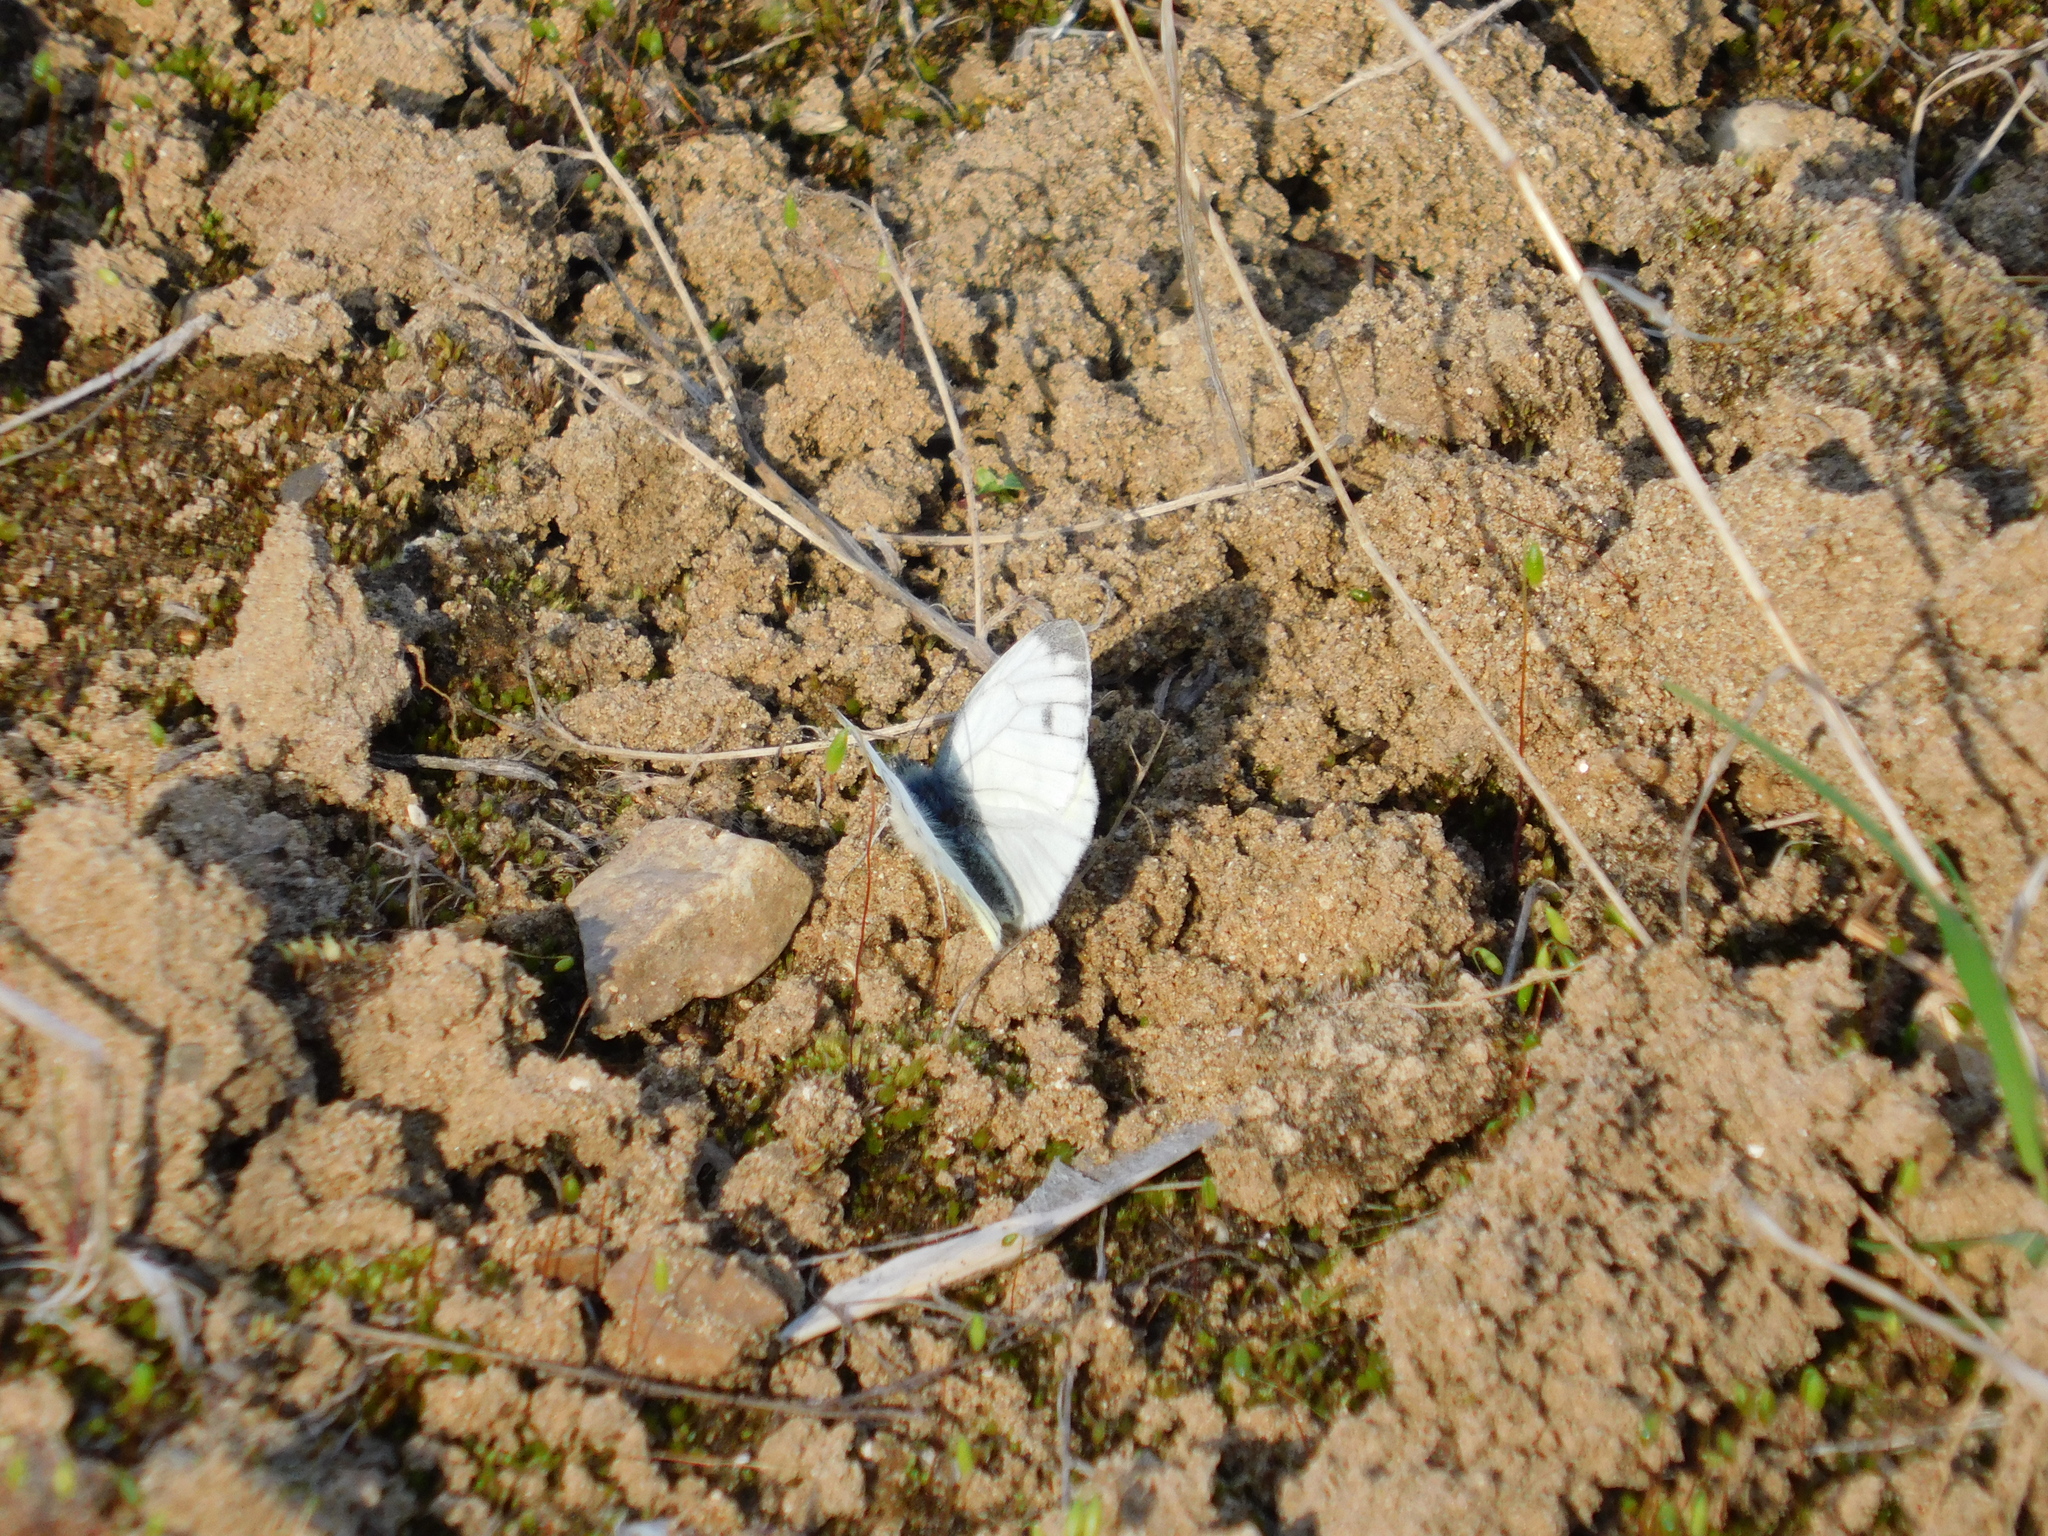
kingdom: Animalia
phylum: Arthropoda
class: Insecta
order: Lepidoptera
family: Pieridae
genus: Pieris
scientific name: Pieris napi
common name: Green-veined white
